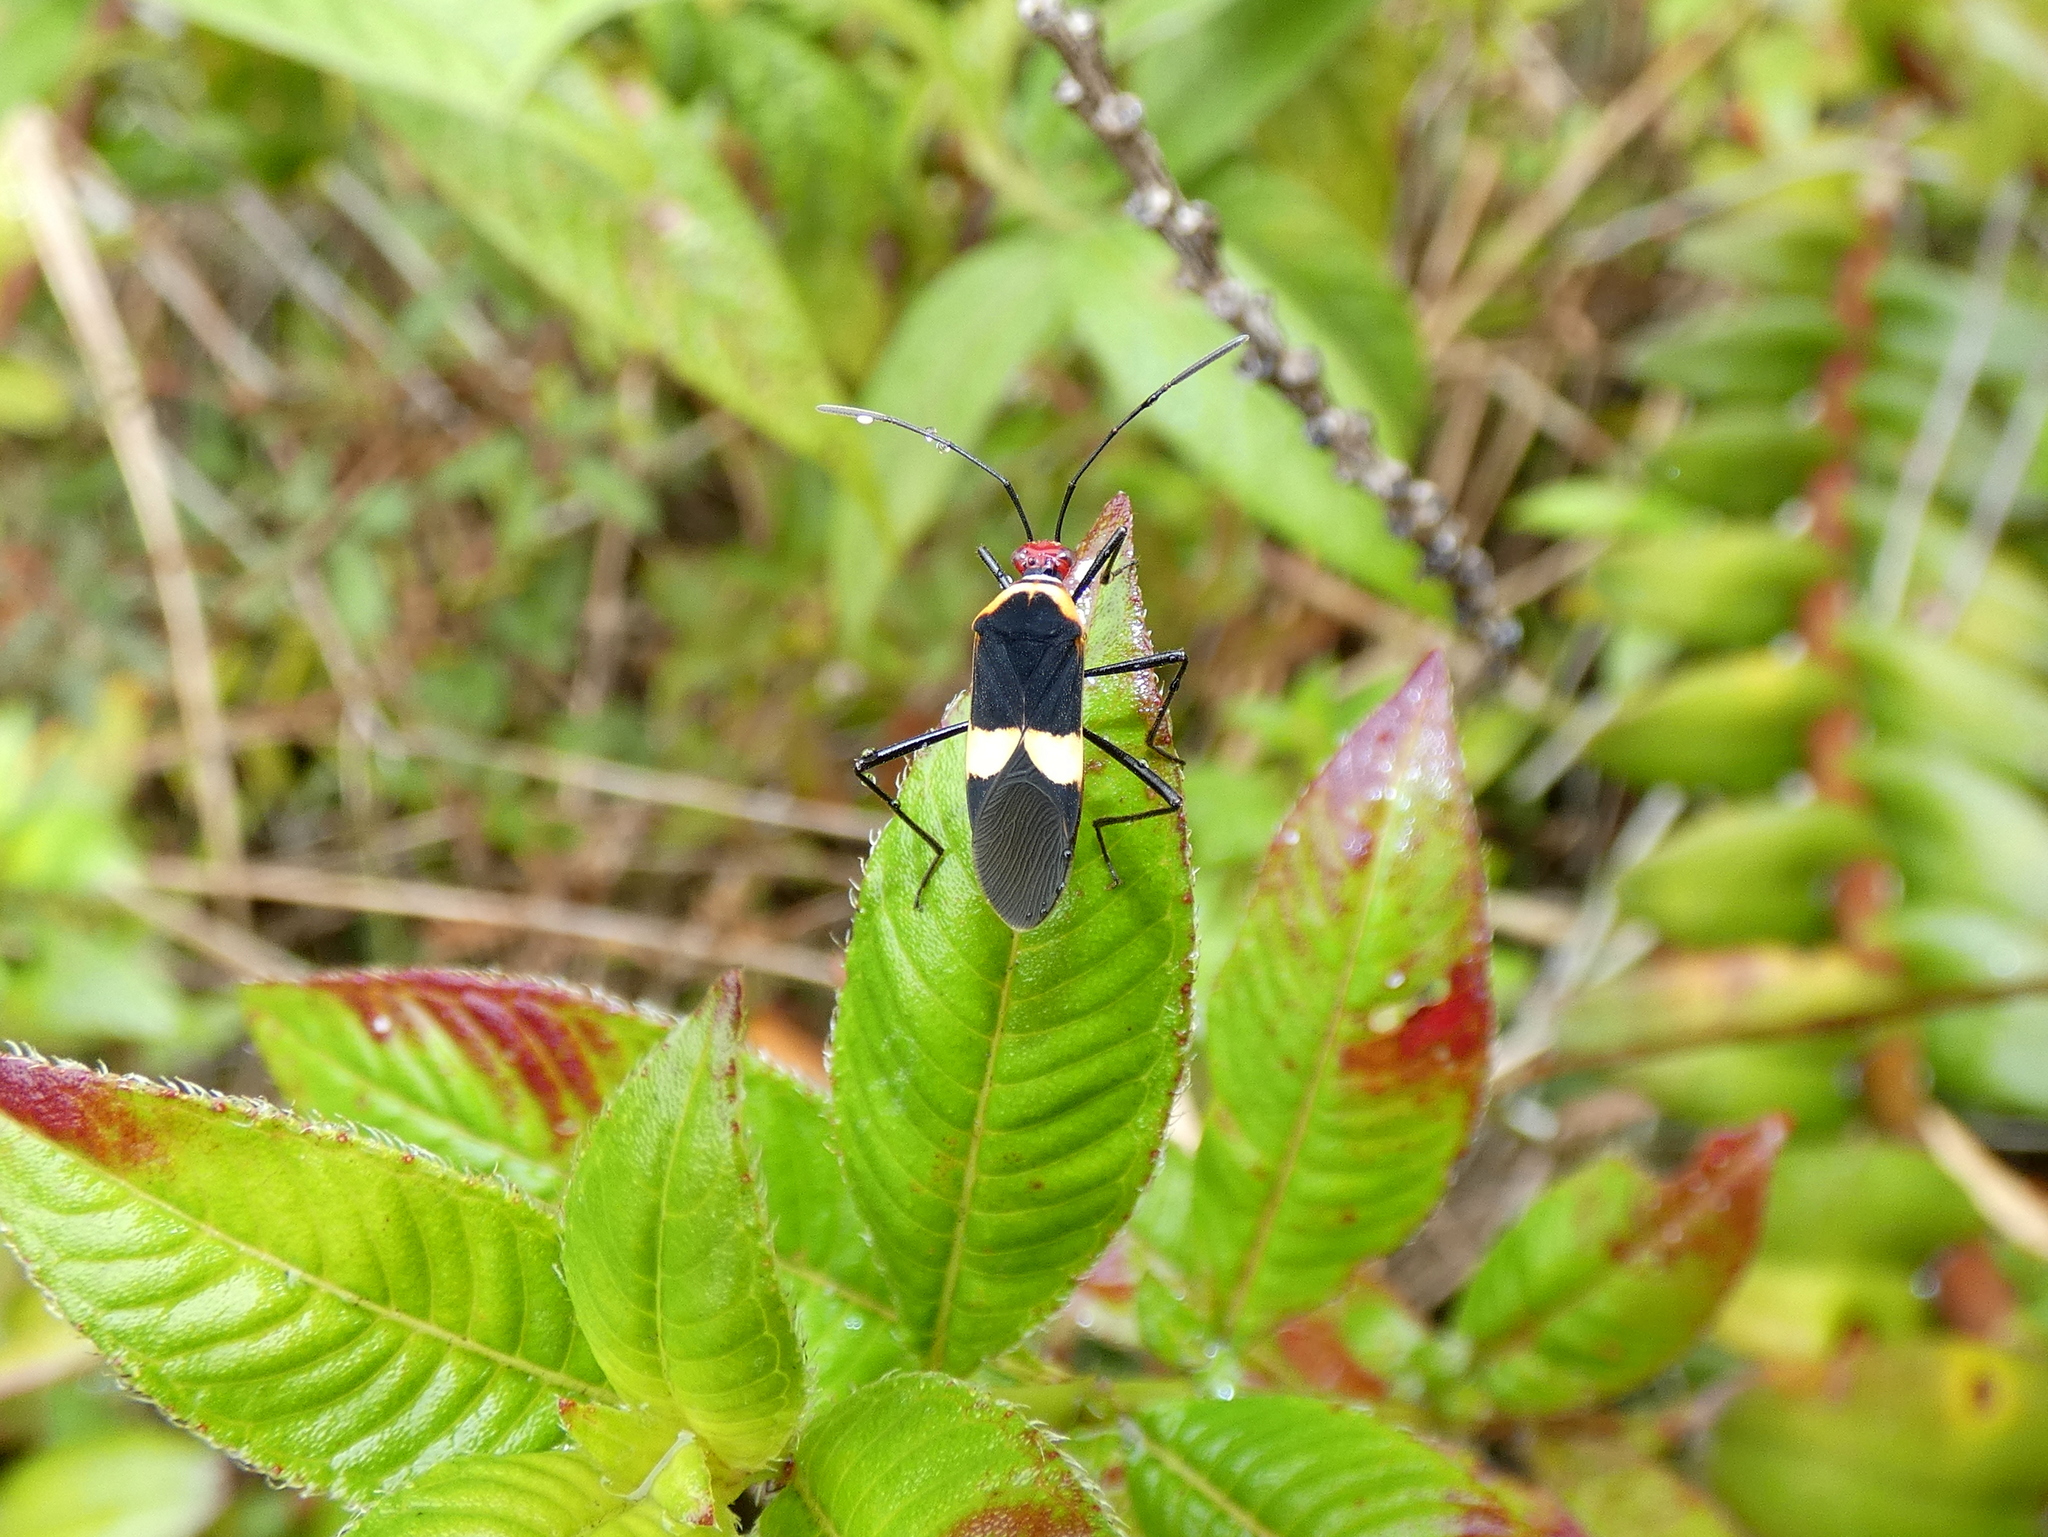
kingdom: Animalia
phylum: Arthropoda
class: Insecta
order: Hemiptera
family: Coreidae
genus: Hypselonotus
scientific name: Hypselonotus interruptus
